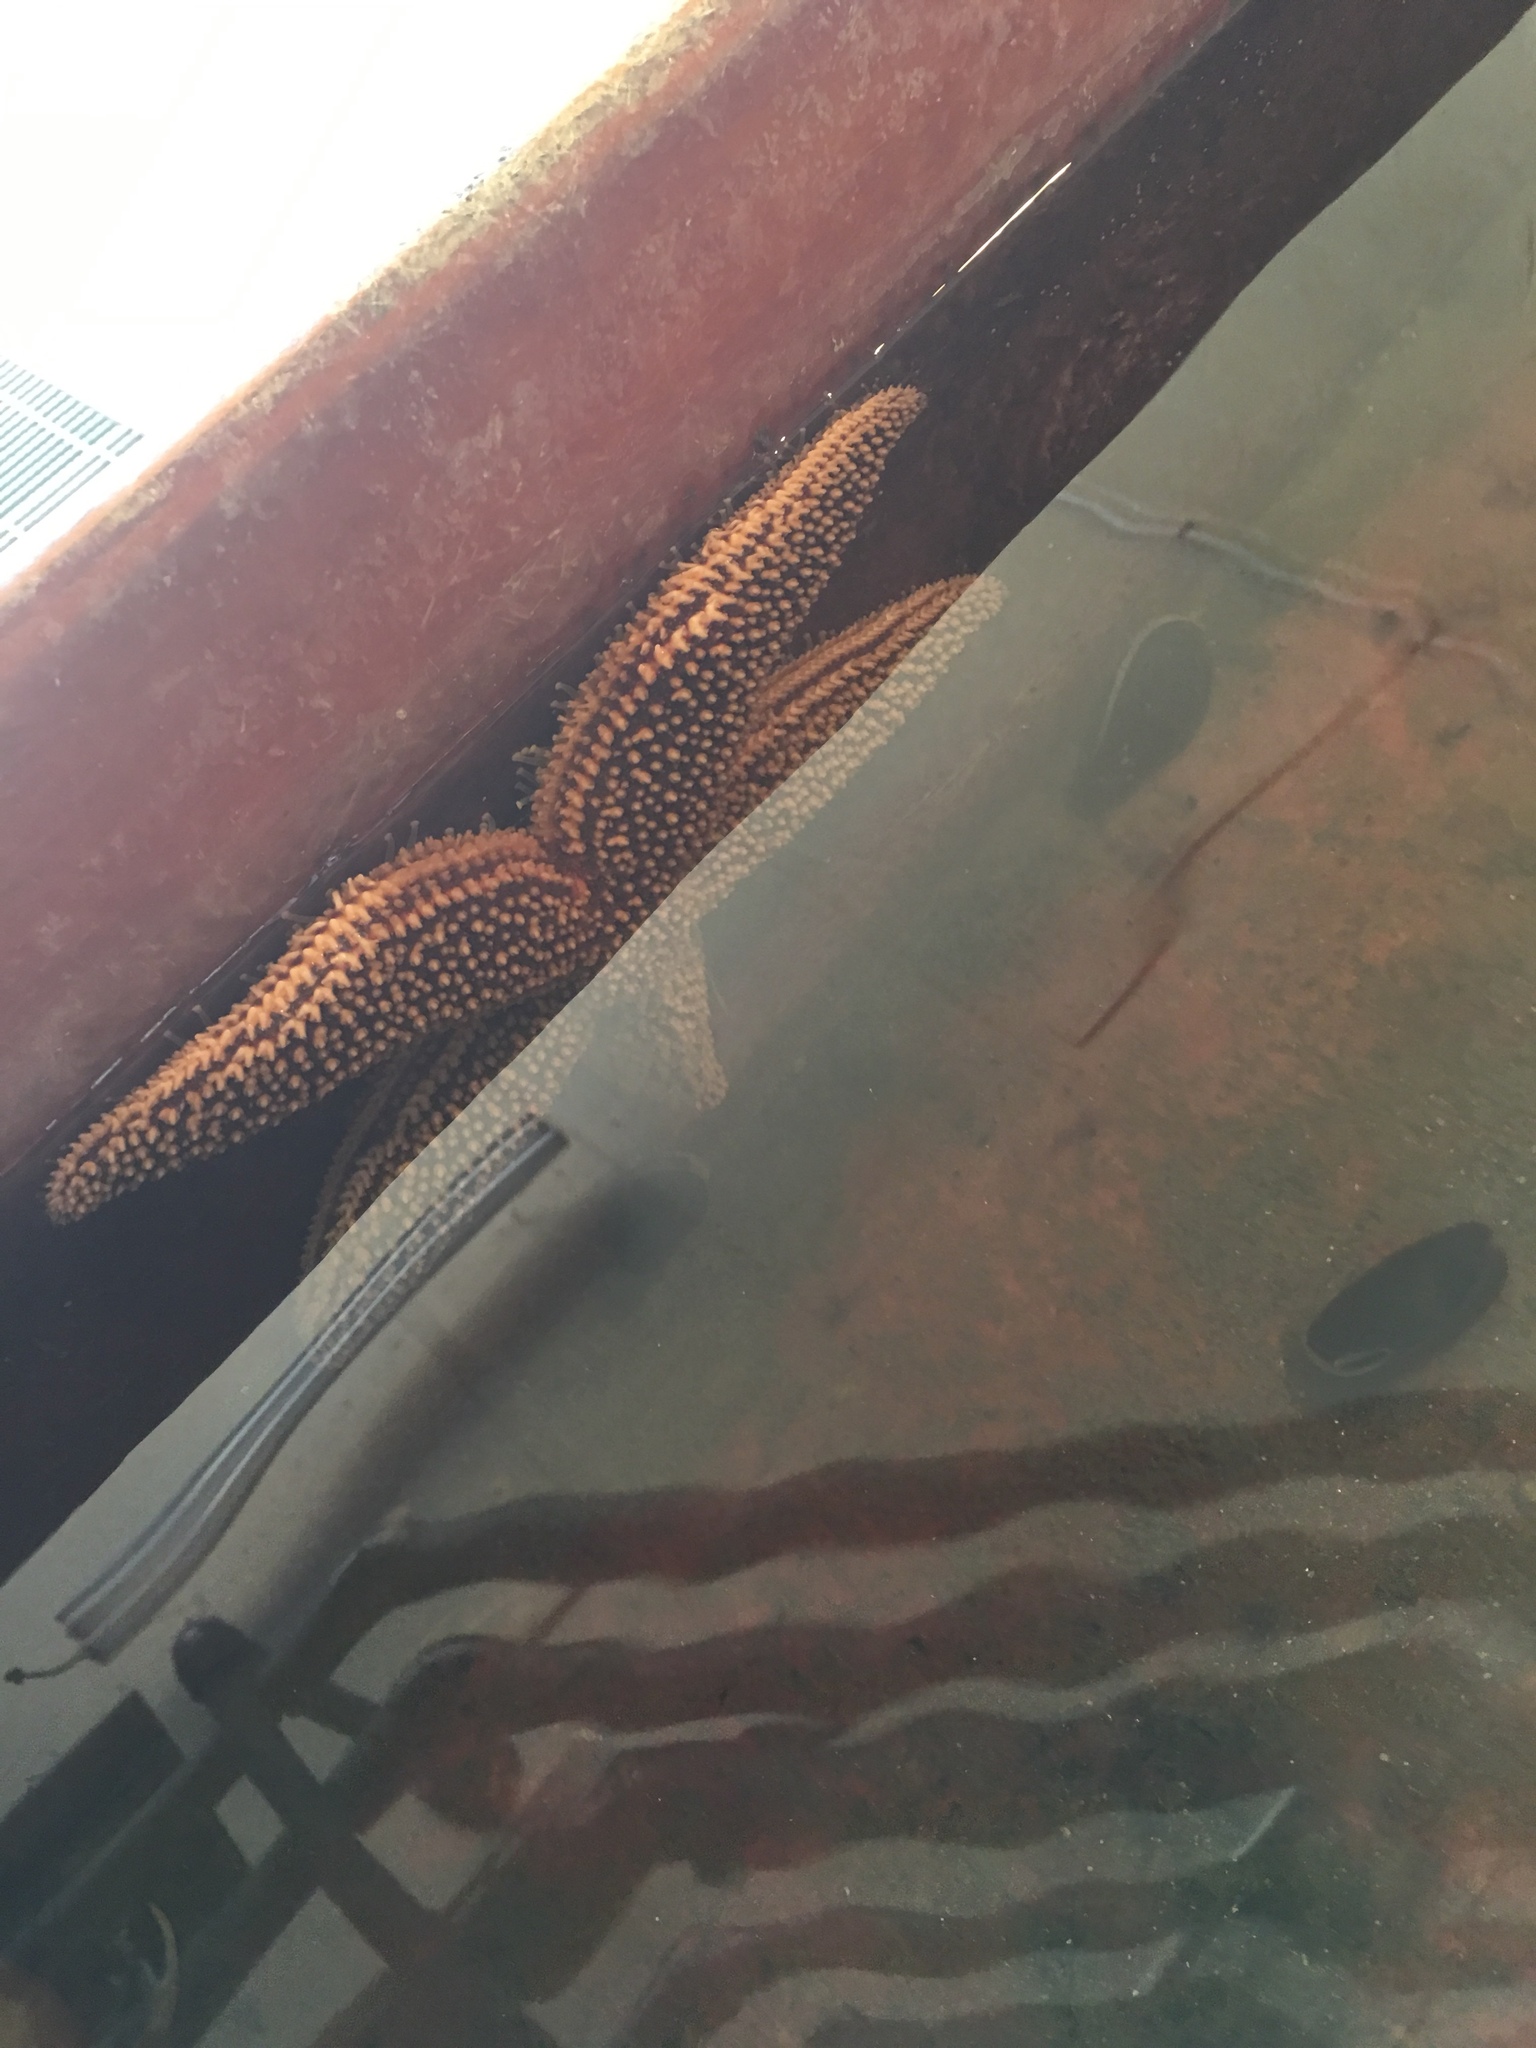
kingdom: Animalia
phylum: Echinodermata
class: Asteroidea
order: Forcipulatida
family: Asteriidae
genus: Asterias
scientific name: Asterias forbesi
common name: Forbes's sea star
